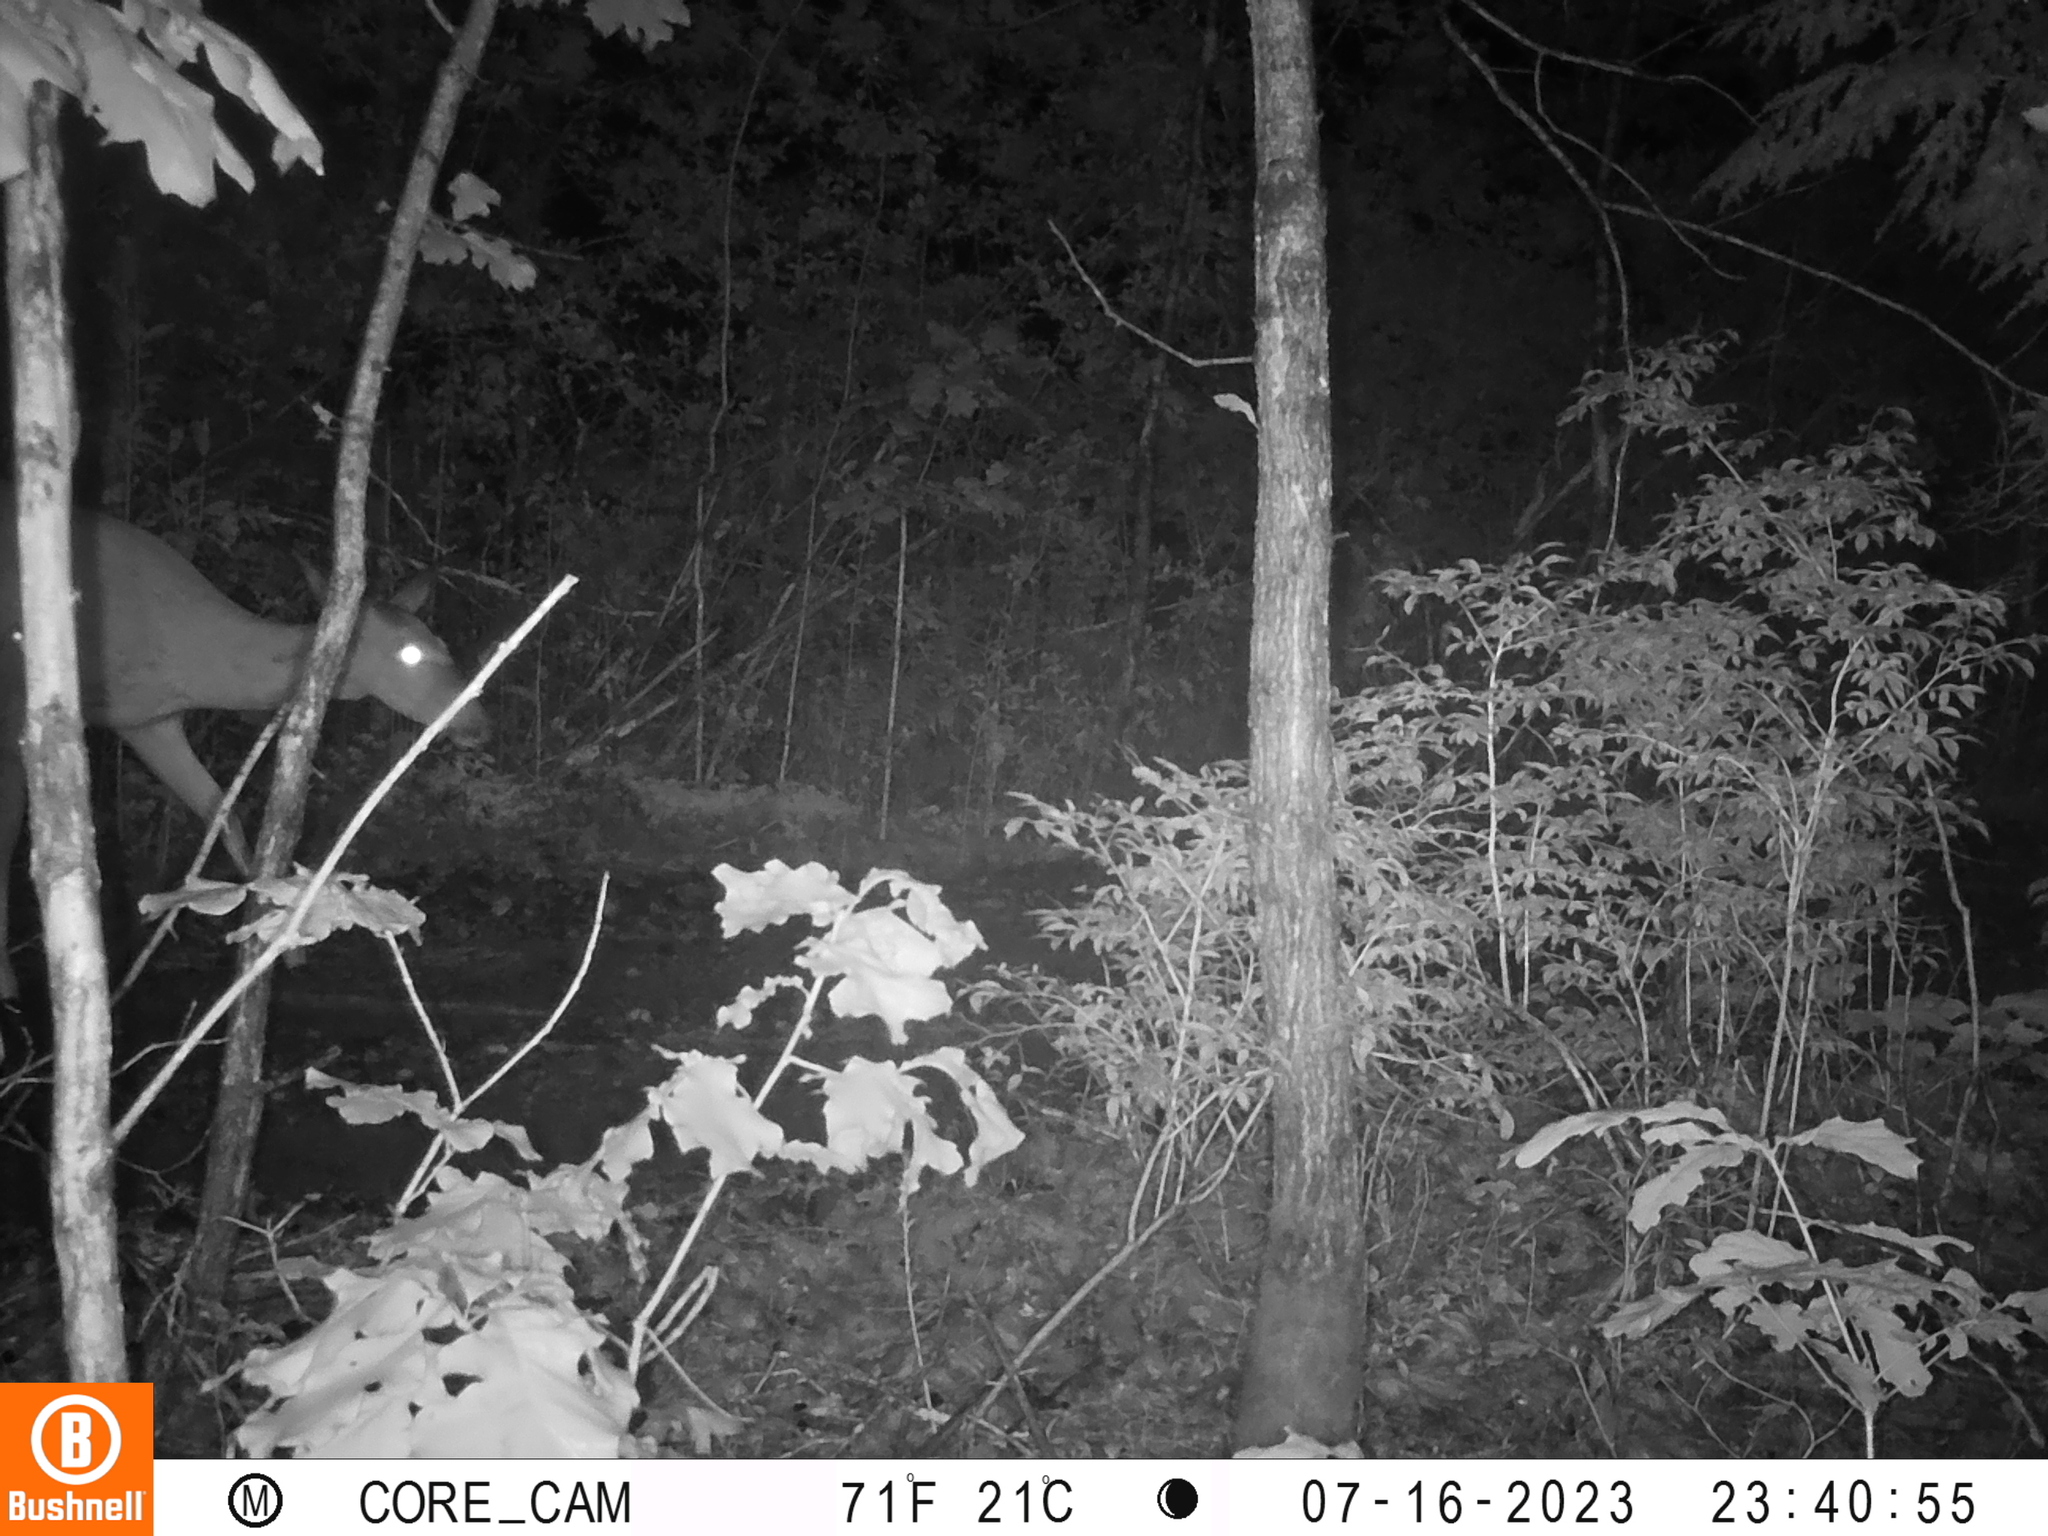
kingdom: Animalia
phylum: Chordata
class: Mammalia
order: Artiodactyla
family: Cervidae
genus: Odocoileus
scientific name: Odocoileus virginianus
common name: White-tailed deer
